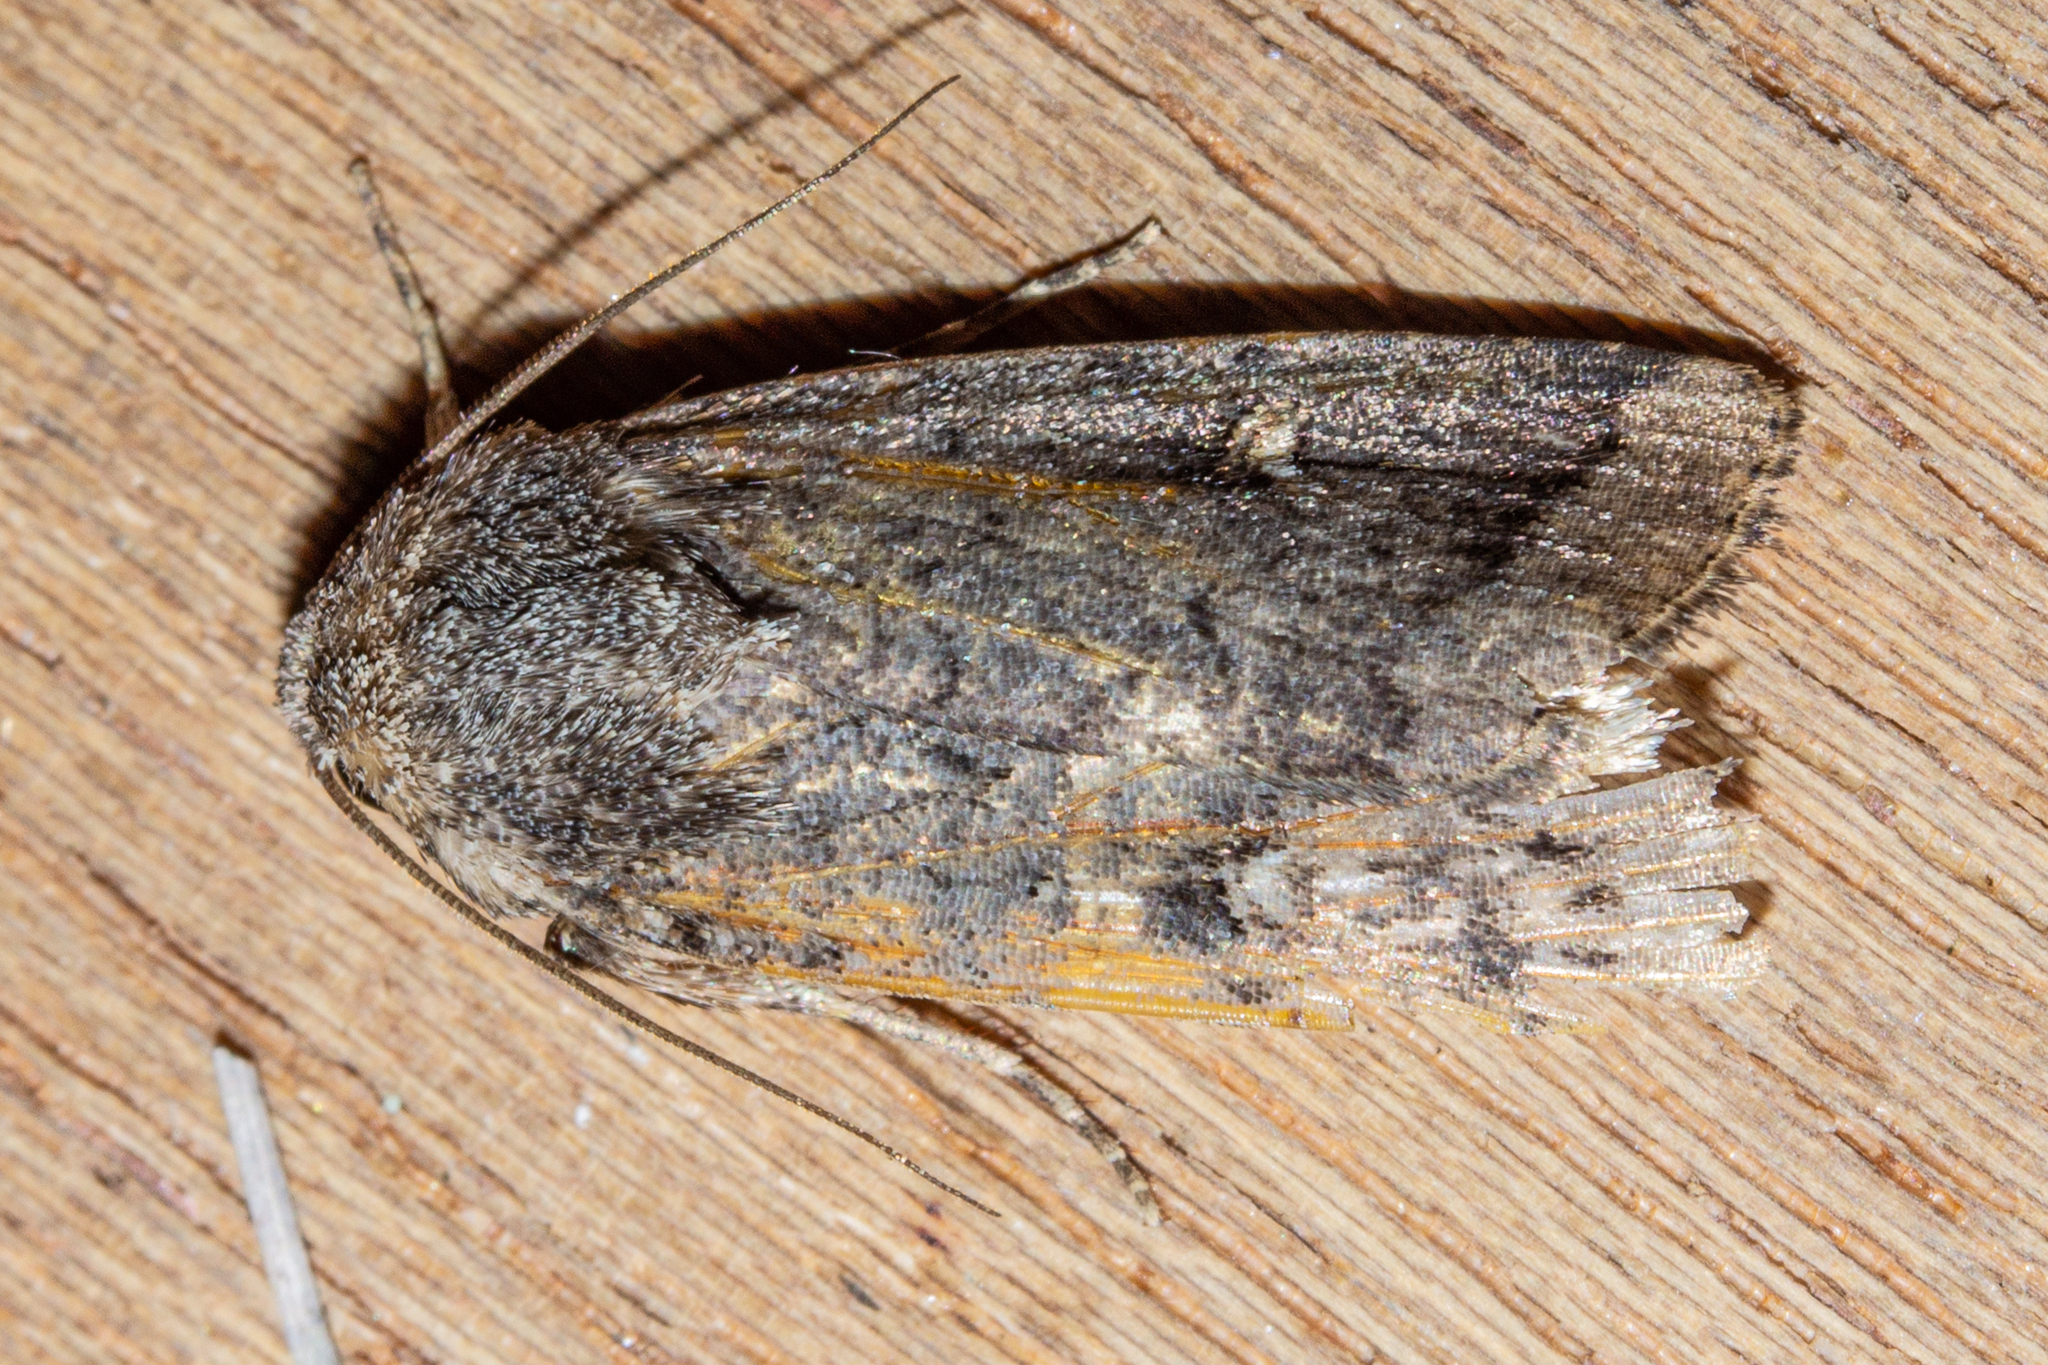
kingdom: Animalia
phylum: Arthropoda
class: Insecta
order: Lepidoptera
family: Noctuidae
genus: Proteuxoa
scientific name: Proteuxoa comma
